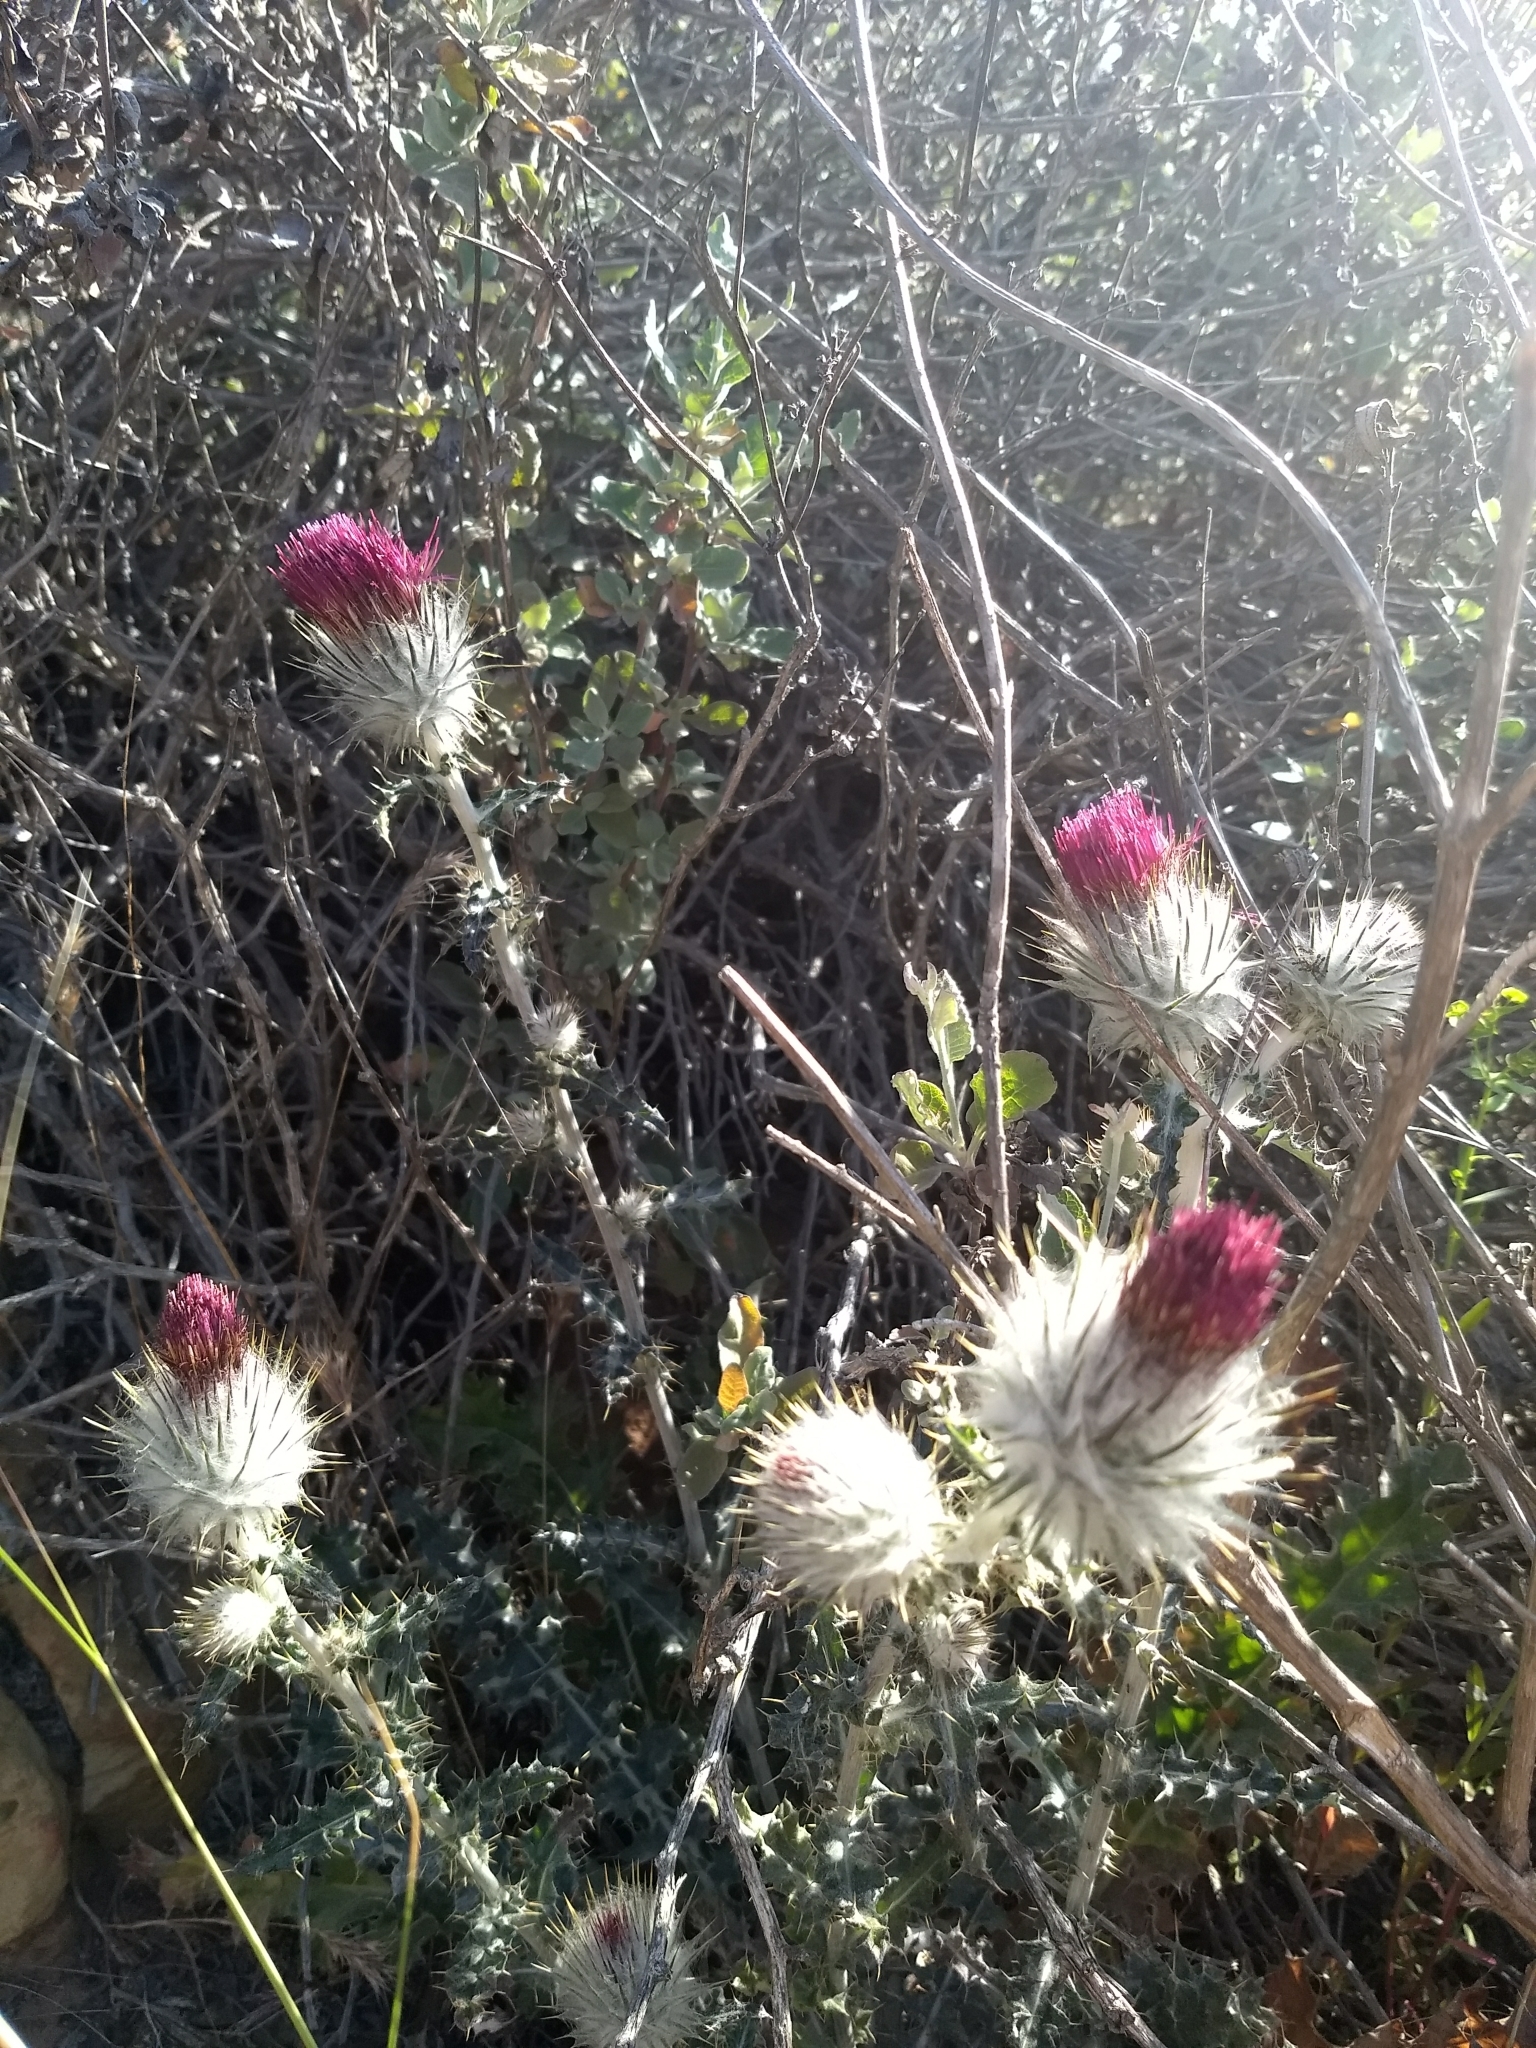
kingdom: Plantae
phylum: Tracheophyta
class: Magnoliopsida
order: Asterales
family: Asteraceae
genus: Cirsium
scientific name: Cirsium occidentale
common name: Western thistle
